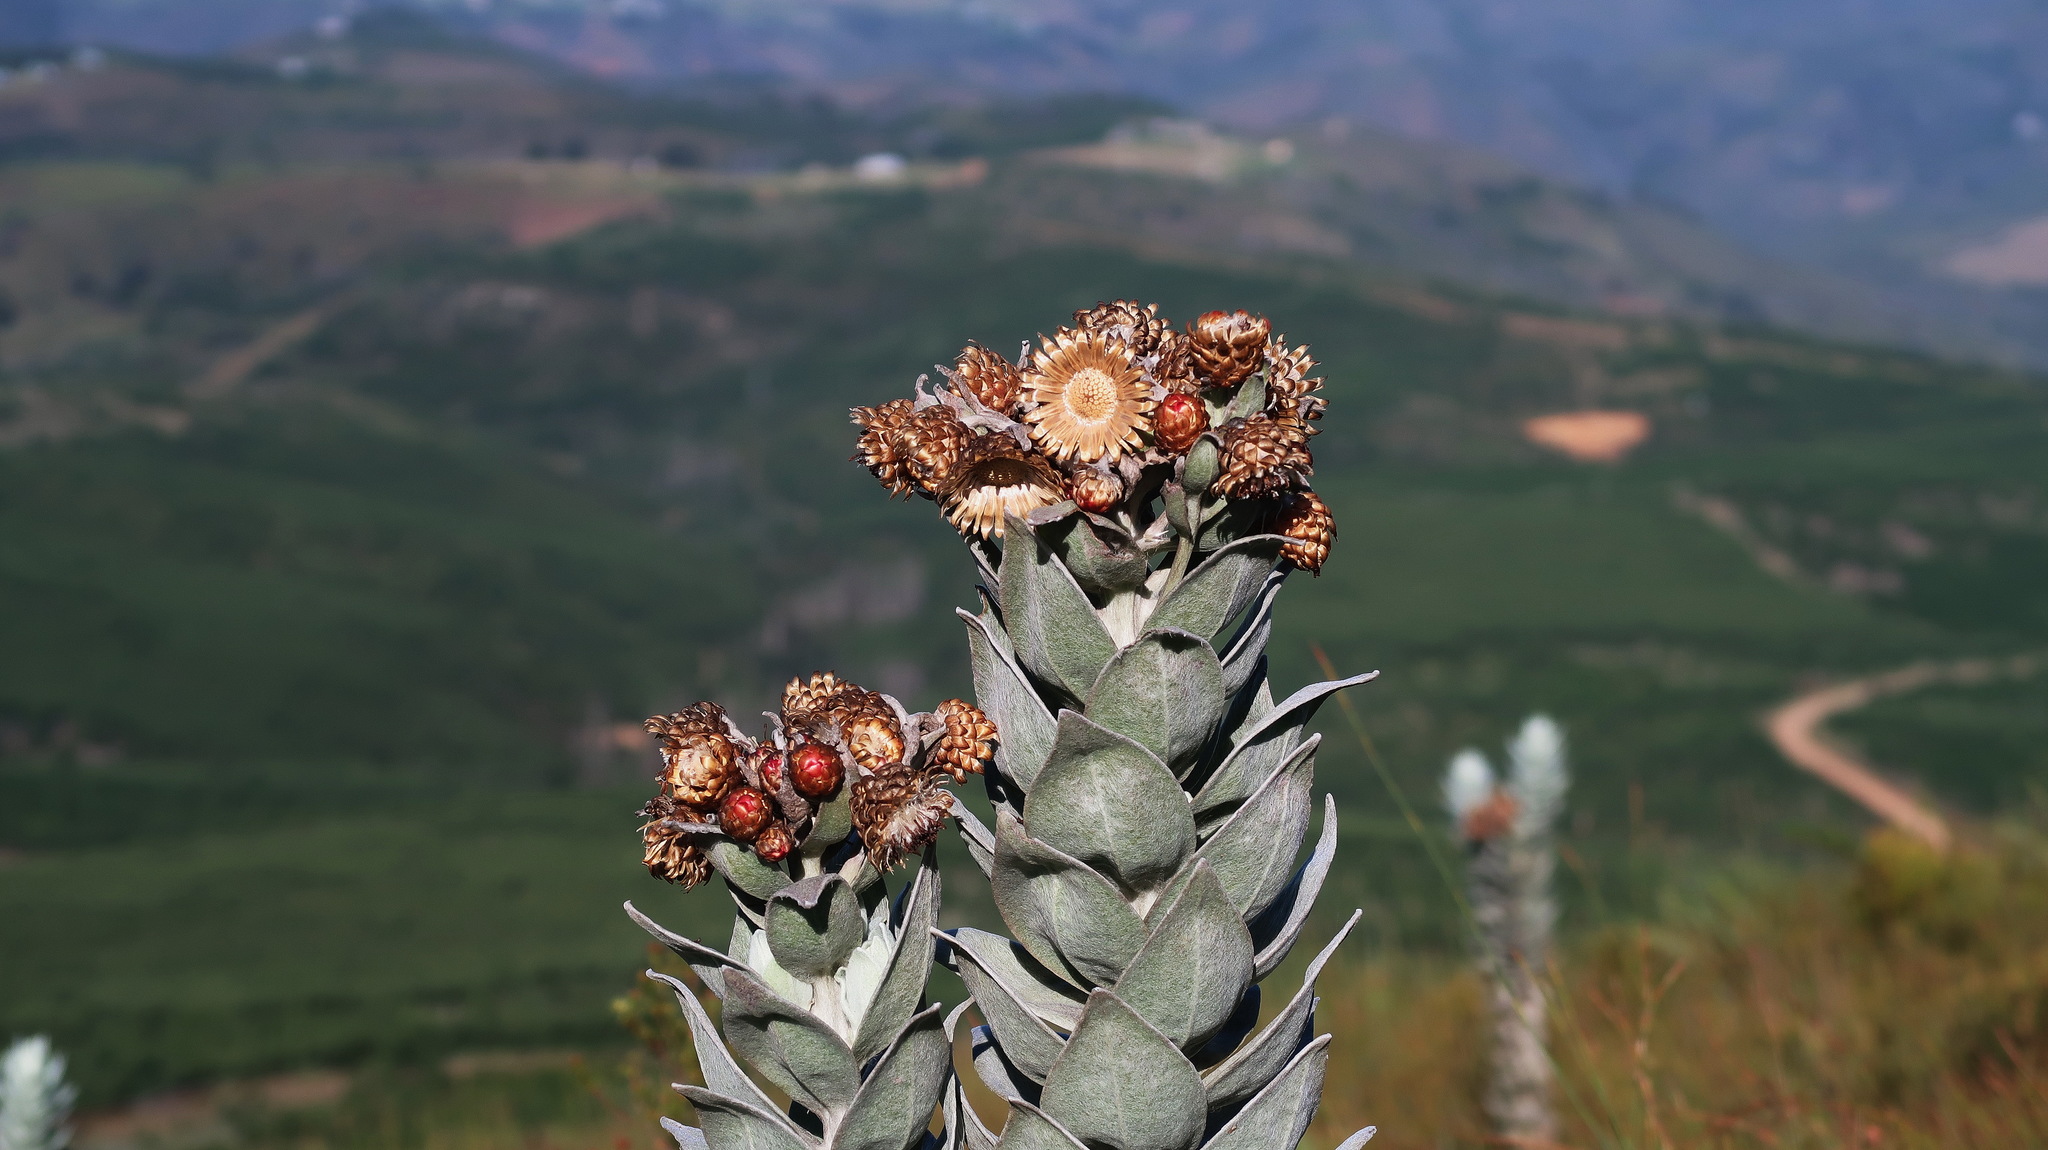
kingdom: Plantae
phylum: Tracheophyta
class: Magnoliopsida
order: Asterales
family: Asteraceae
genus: Syncarpha
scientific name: Syncarpha eximia
